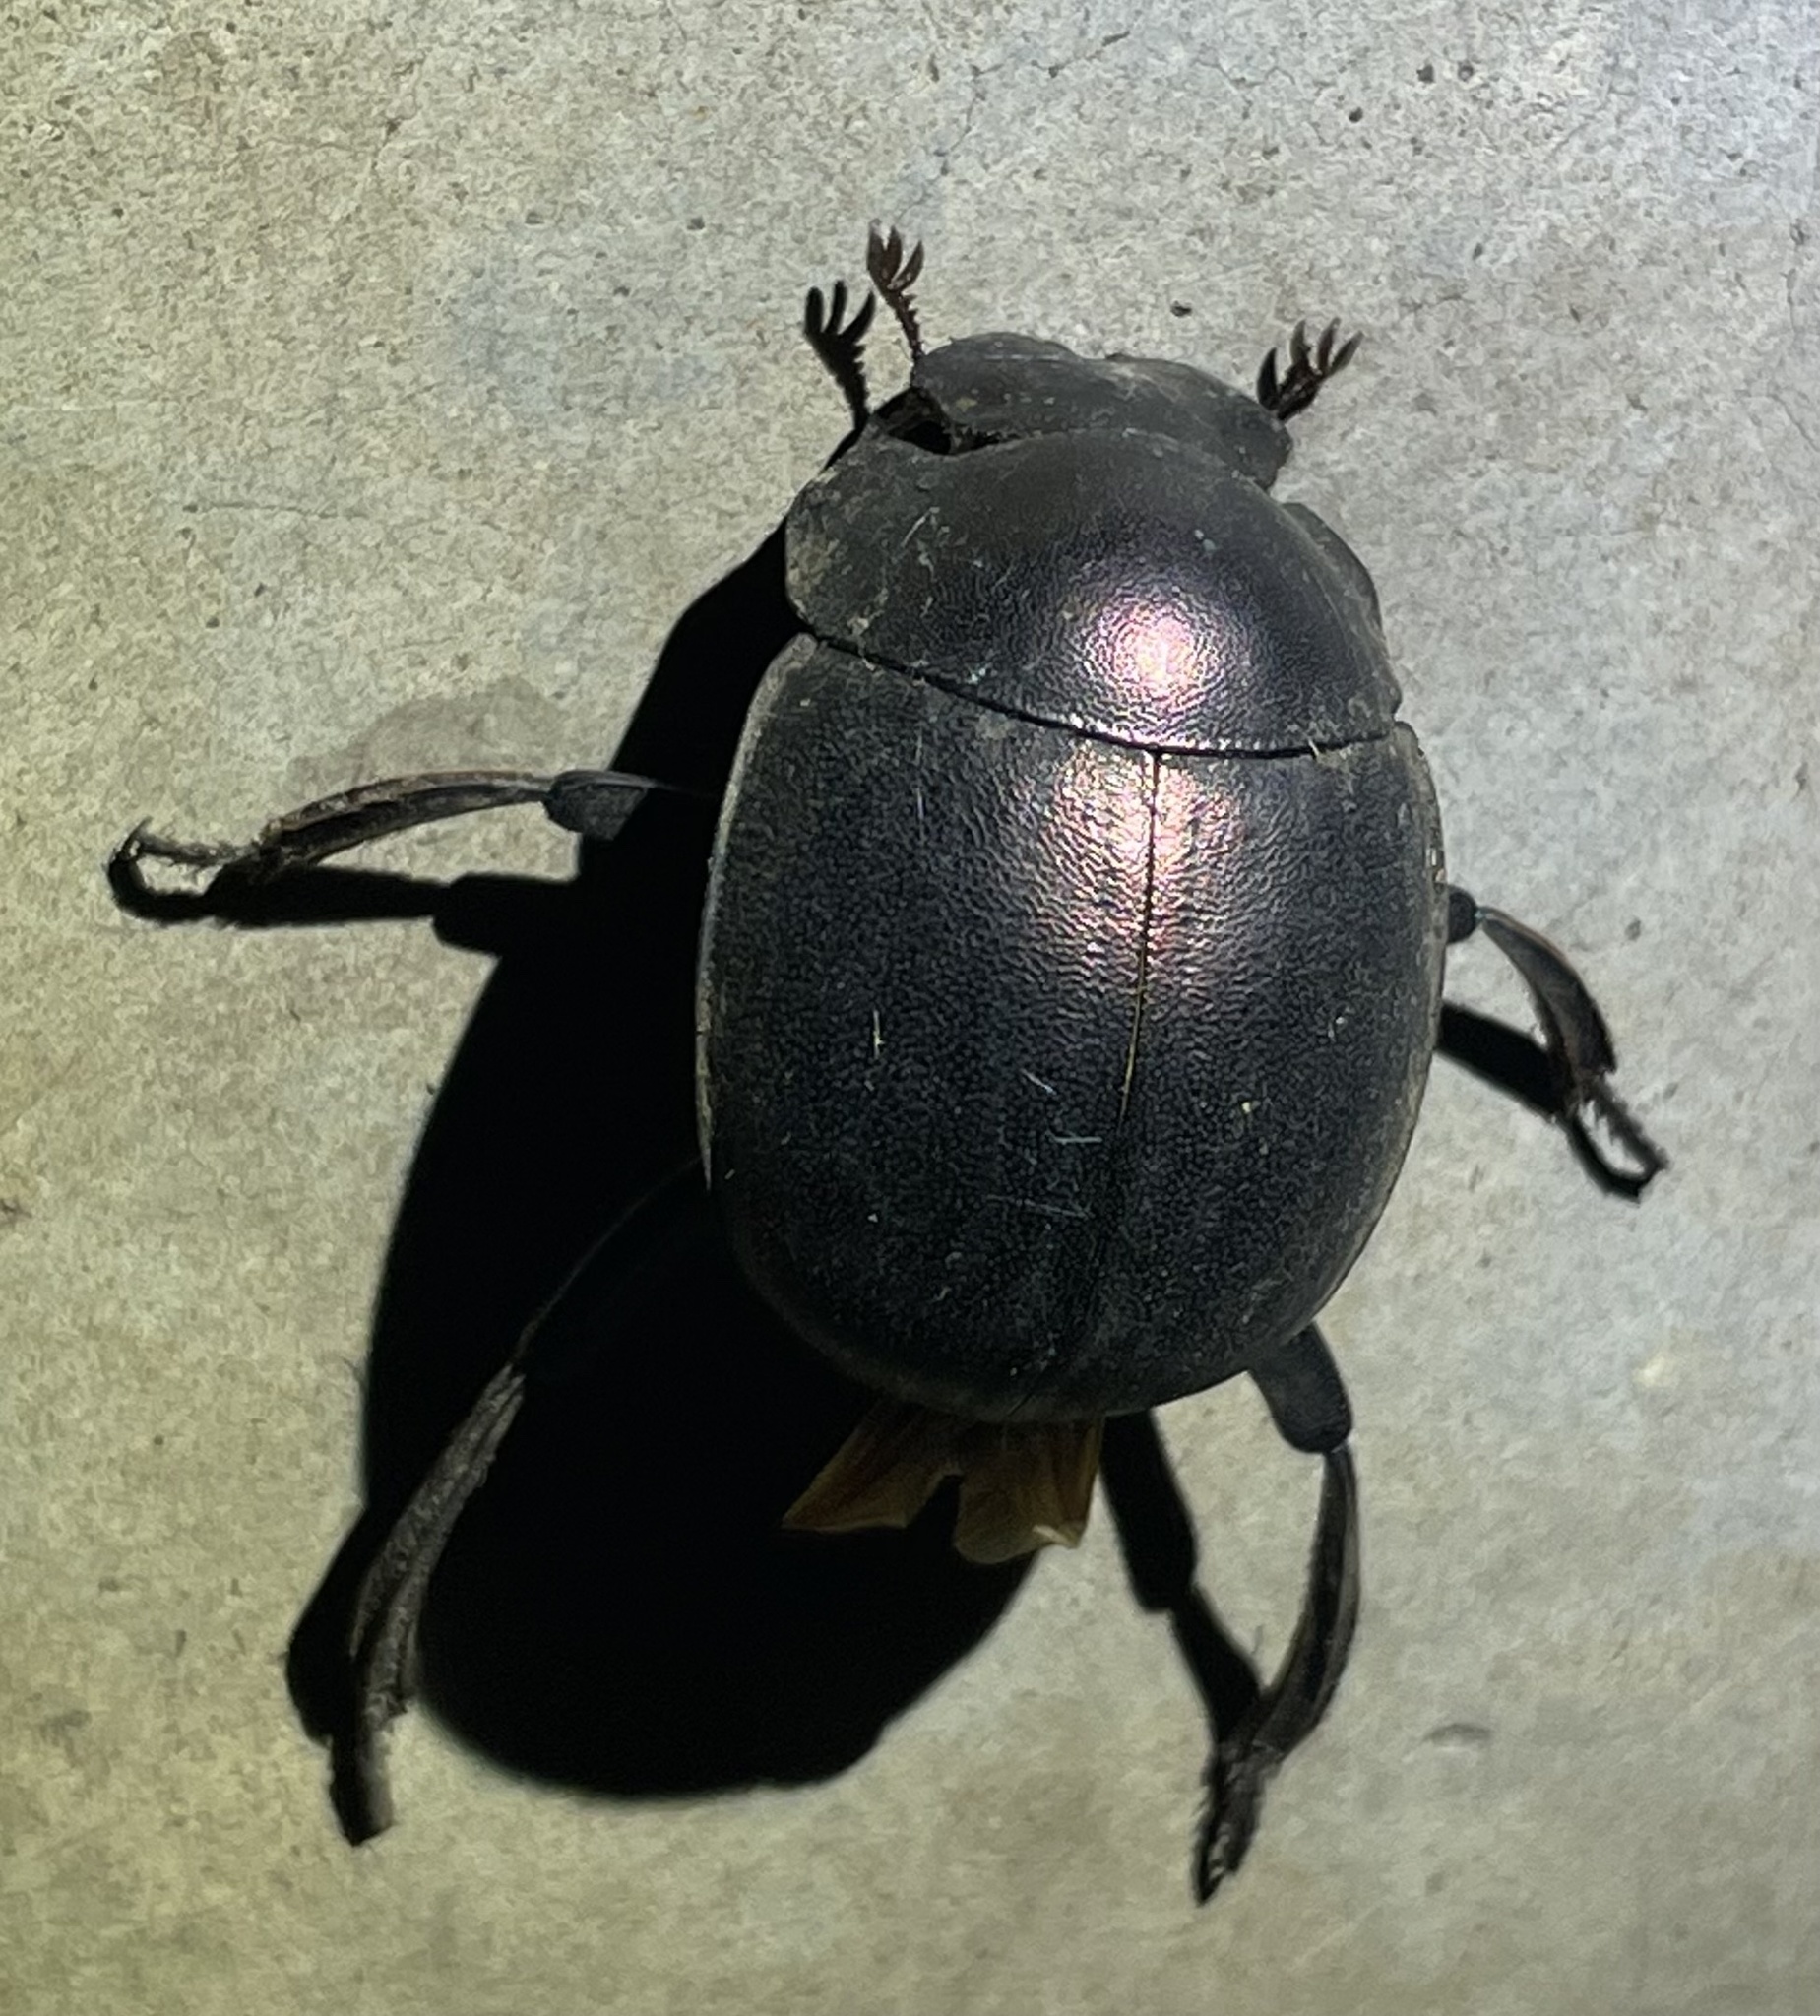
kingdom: Animalia
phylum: Arthropoda
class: Insecta
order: Coleoptera
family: Scarabaeidae
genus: Chalconotus
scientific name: Chalconotus convexus
